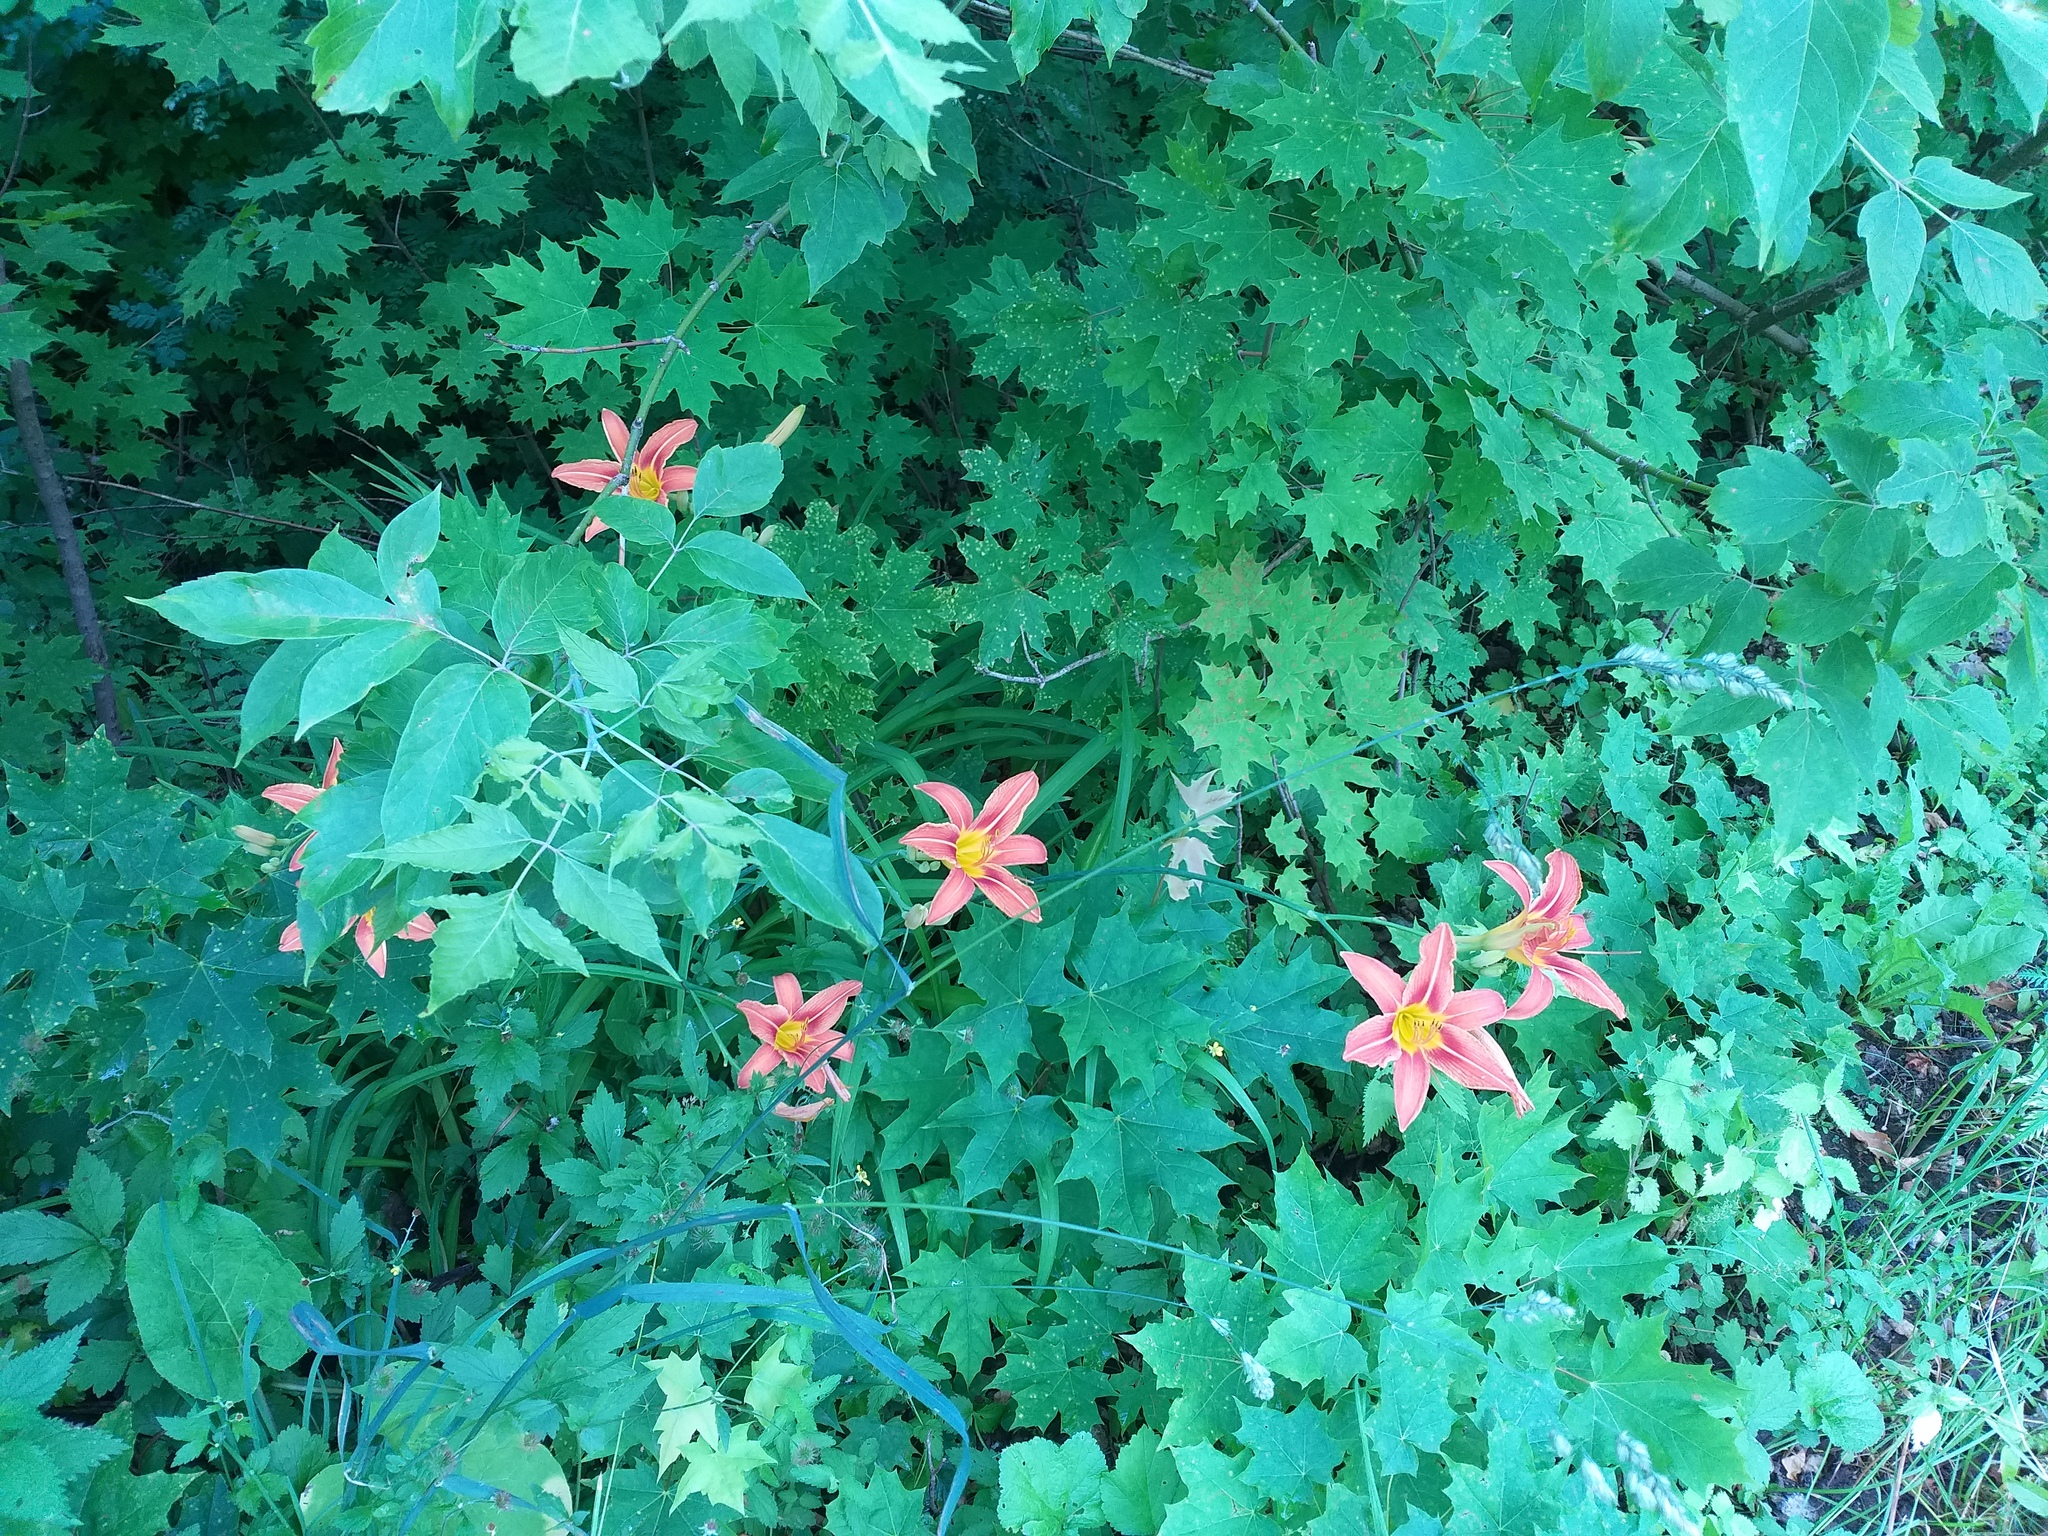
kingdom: Plantae
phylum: Tracheophyta
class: Liliopsida
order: Asparagales
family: Asphodelaceae
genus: Hemerocallis
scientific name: Hemerocallis fulva
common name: Orange day-lily
